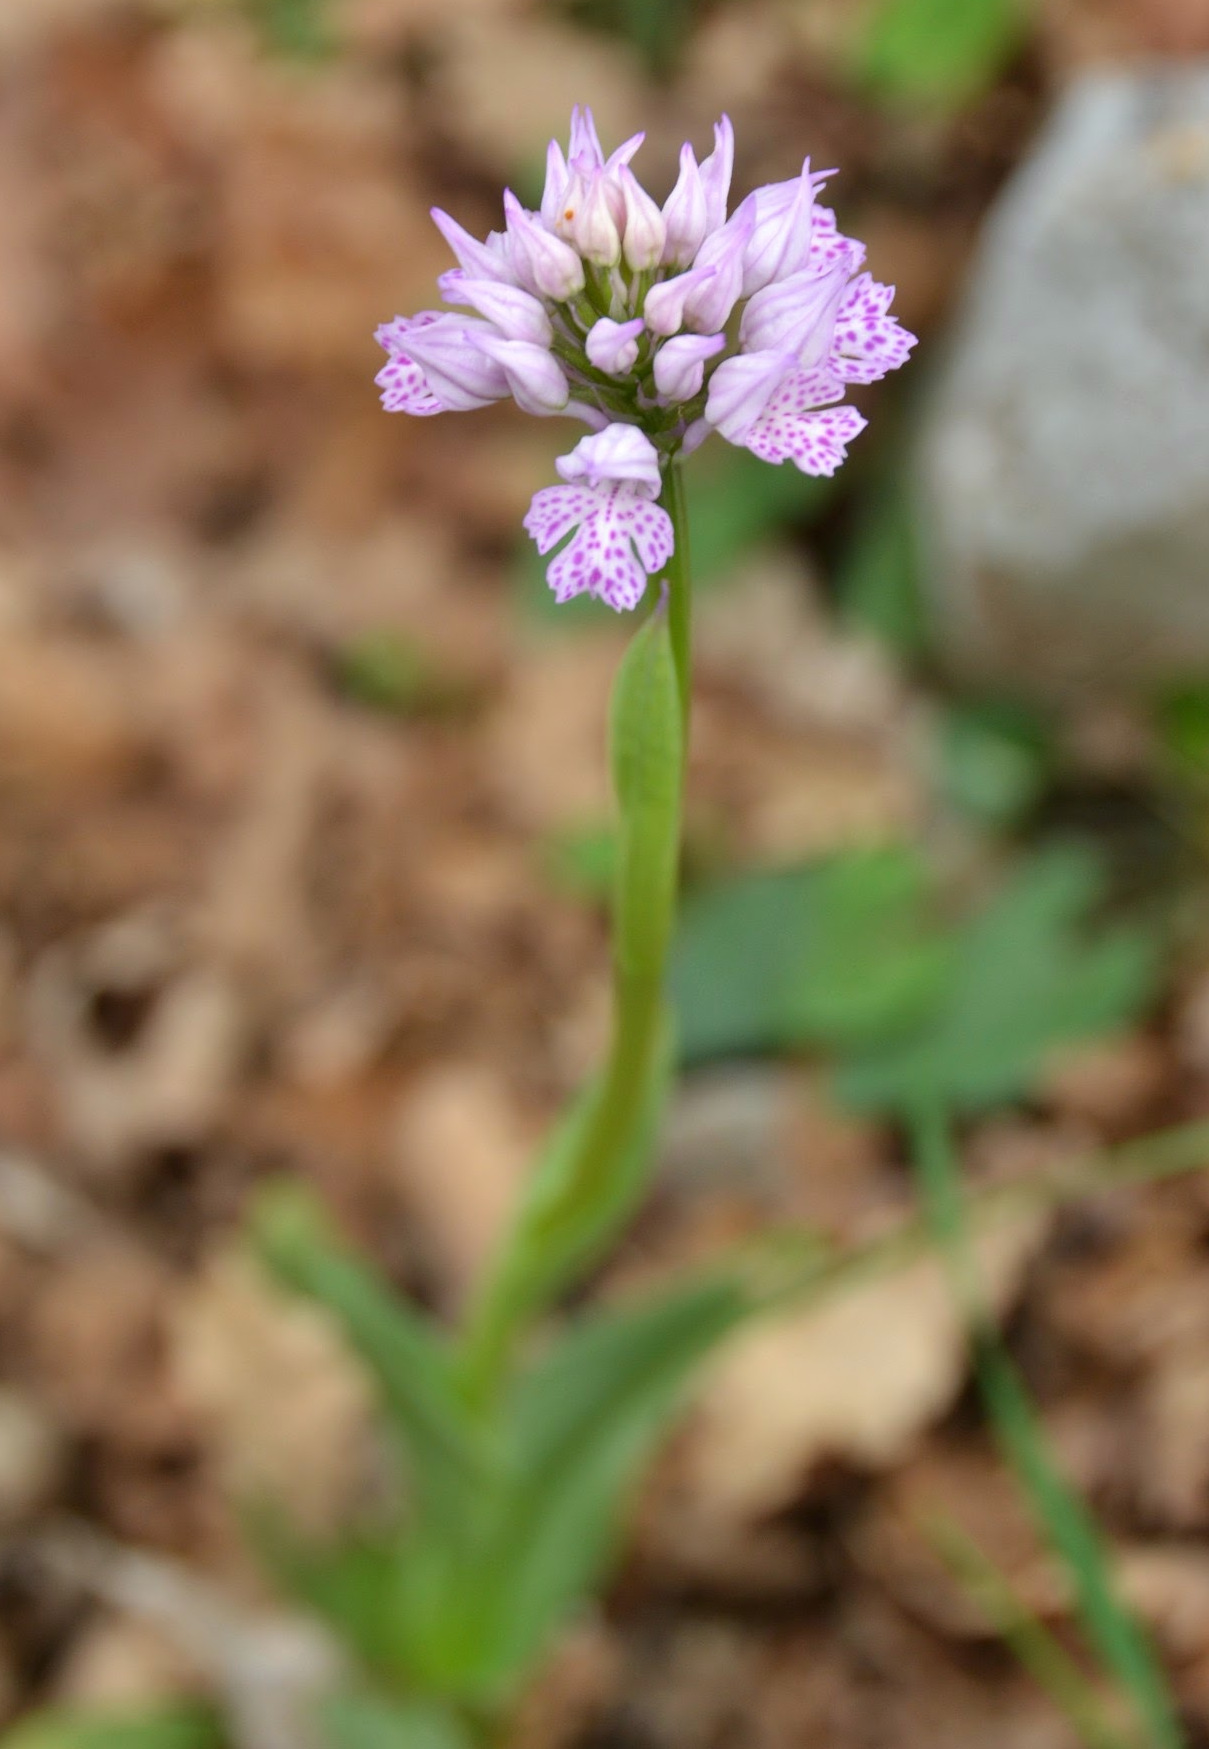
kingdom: Plantae
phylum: Tracheophyta
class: Liliopsida
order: Asparagales
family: Orchidaceae
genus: Neotinea
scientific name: Neotinea tridentata
